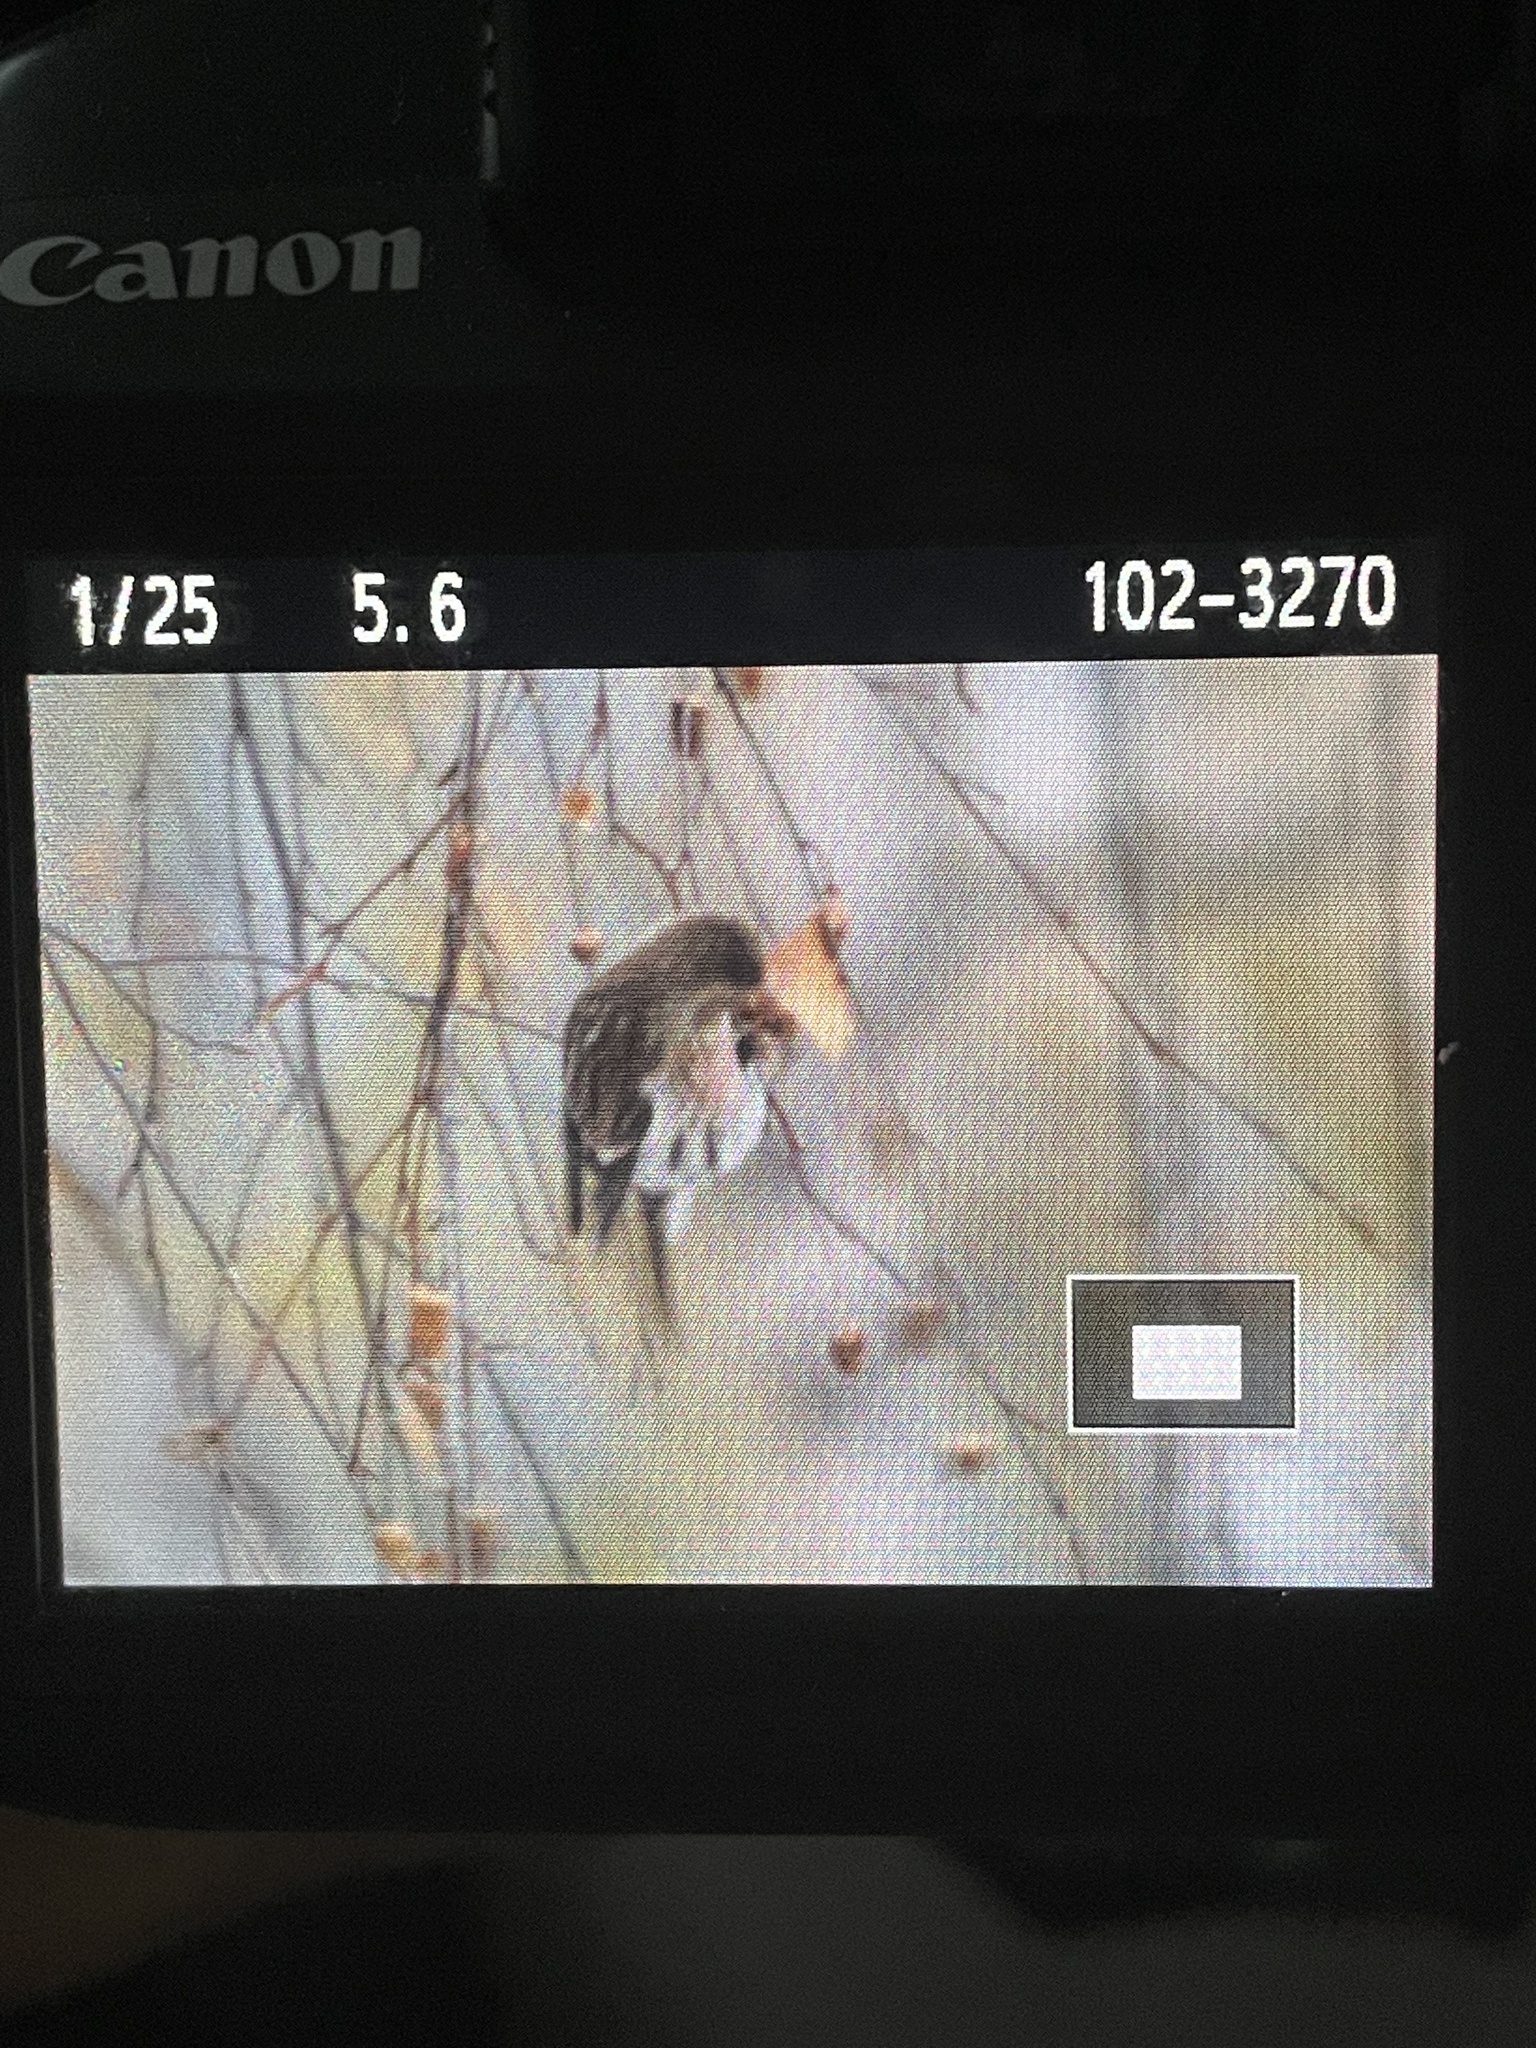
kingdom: Animalia
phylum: Chordata
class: Aves
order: Passeriformes
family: Fringillidae
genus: Acanthis
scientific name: Acanthis flammea
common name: Common redpoll
